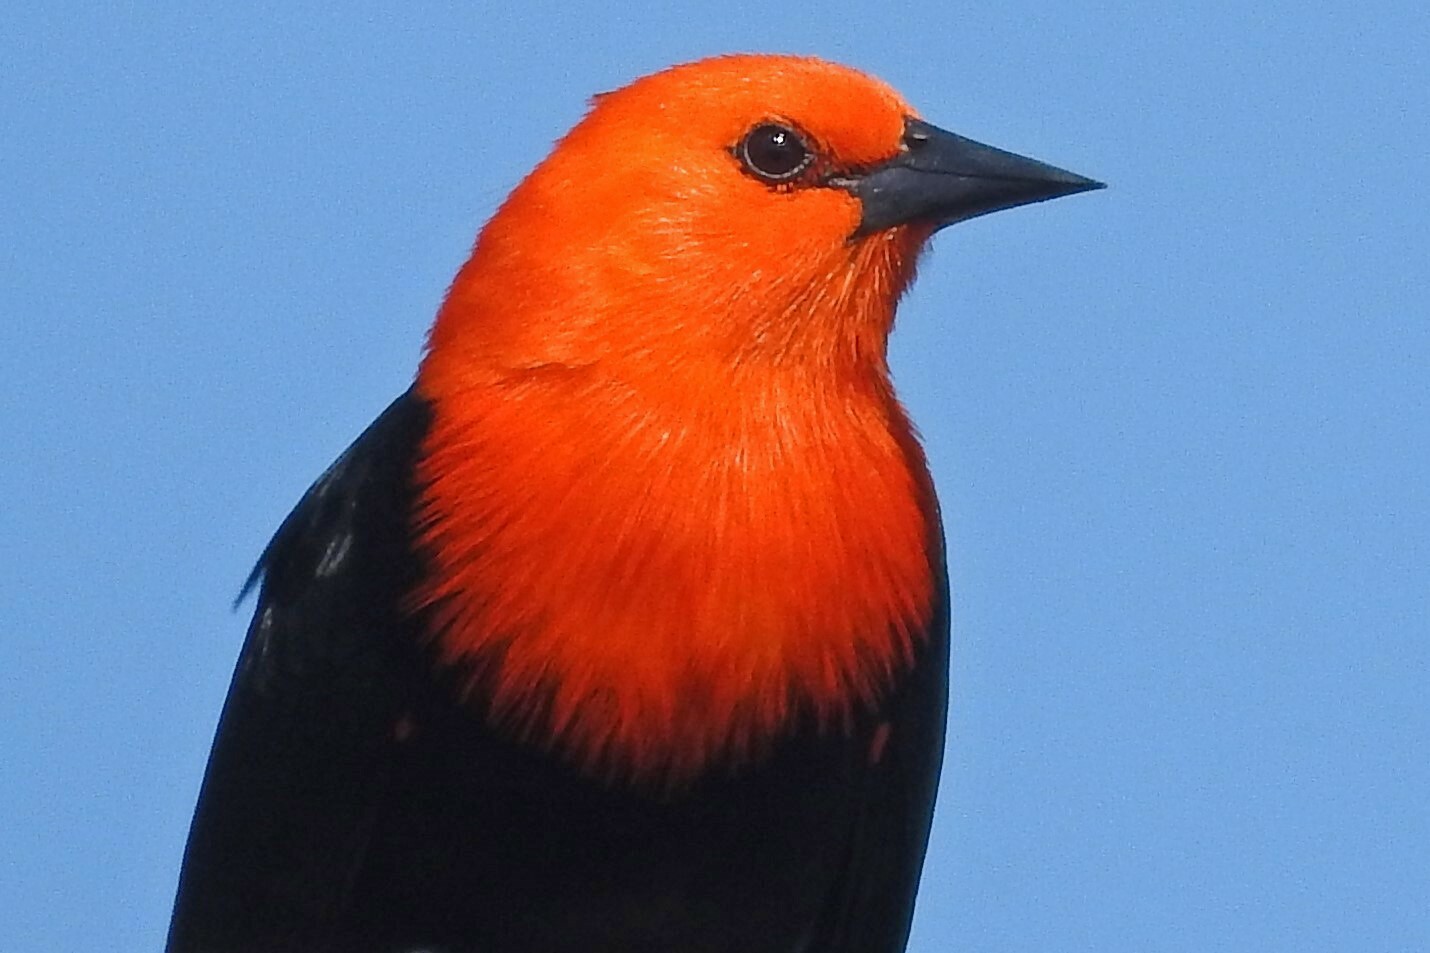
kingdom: Animalia
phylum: Chordata
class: Aves
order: Passeriformes
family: Icteridae
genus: Amblyramphus
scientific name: Amblyramphus holosericeus
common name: Scarlet-headed blackbird
